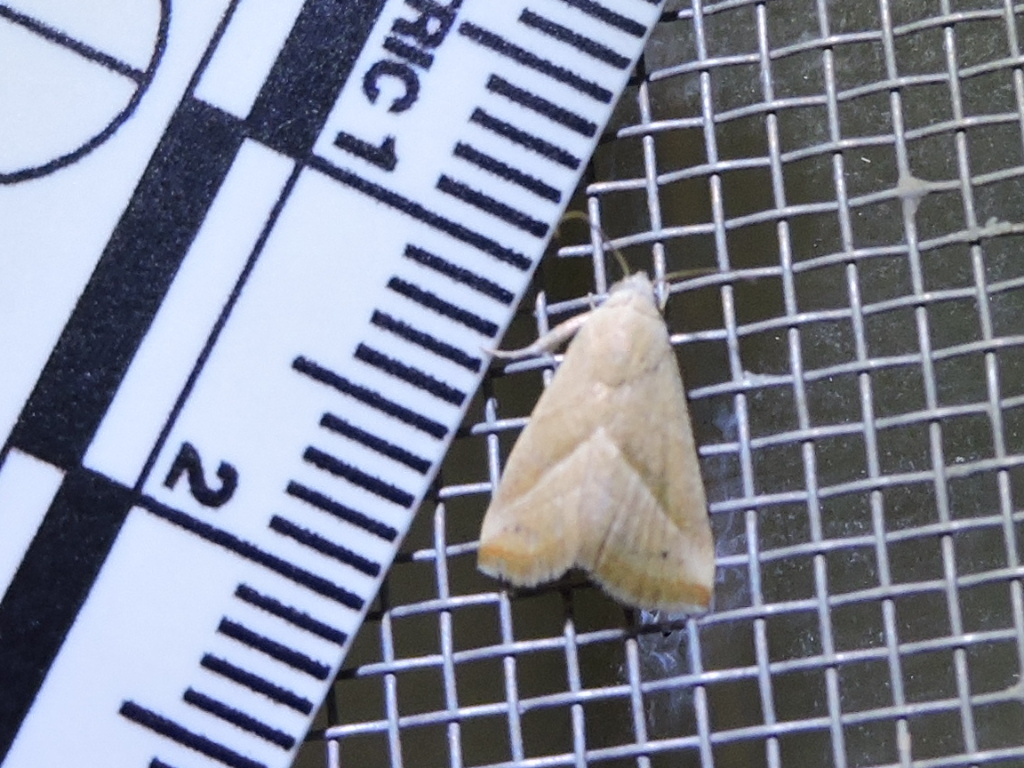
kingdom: Animalia
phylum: Arthropoda
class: Insecta
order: Lepidoptera
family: Noctuidae
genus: Eublemma
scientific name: Eublemma recta
